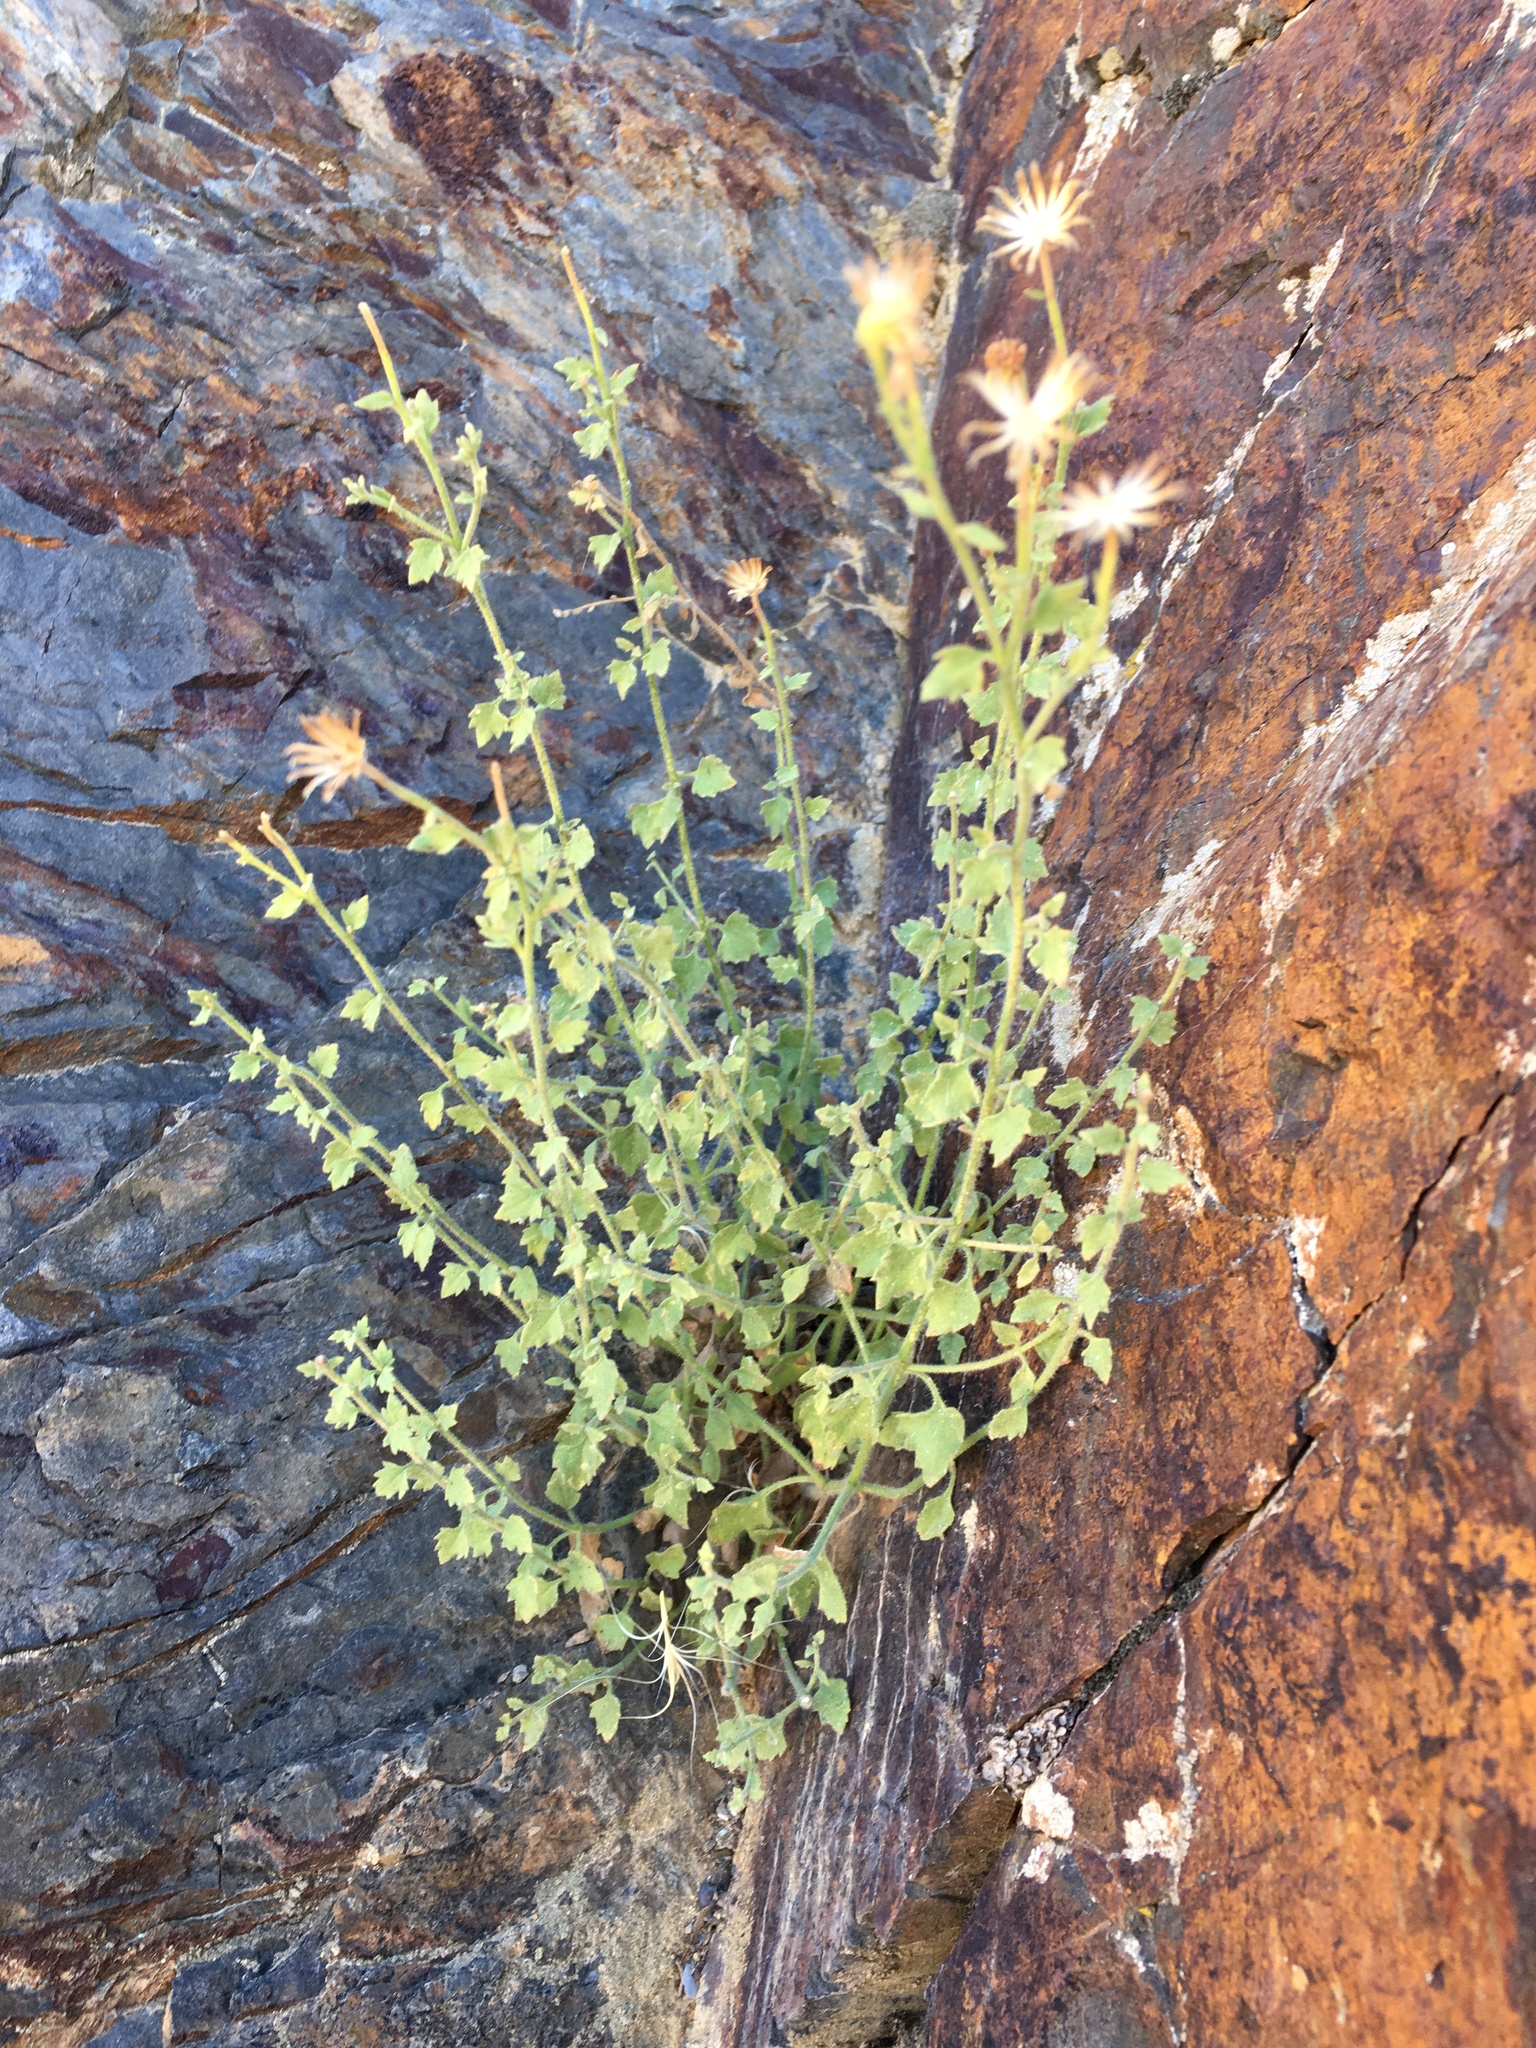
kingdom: Plantae
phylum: Tracheophyta
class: Magnoliopsida
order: Asterales
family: Asteraceae
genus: Laphamia
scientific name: Laphamia inyoensis
